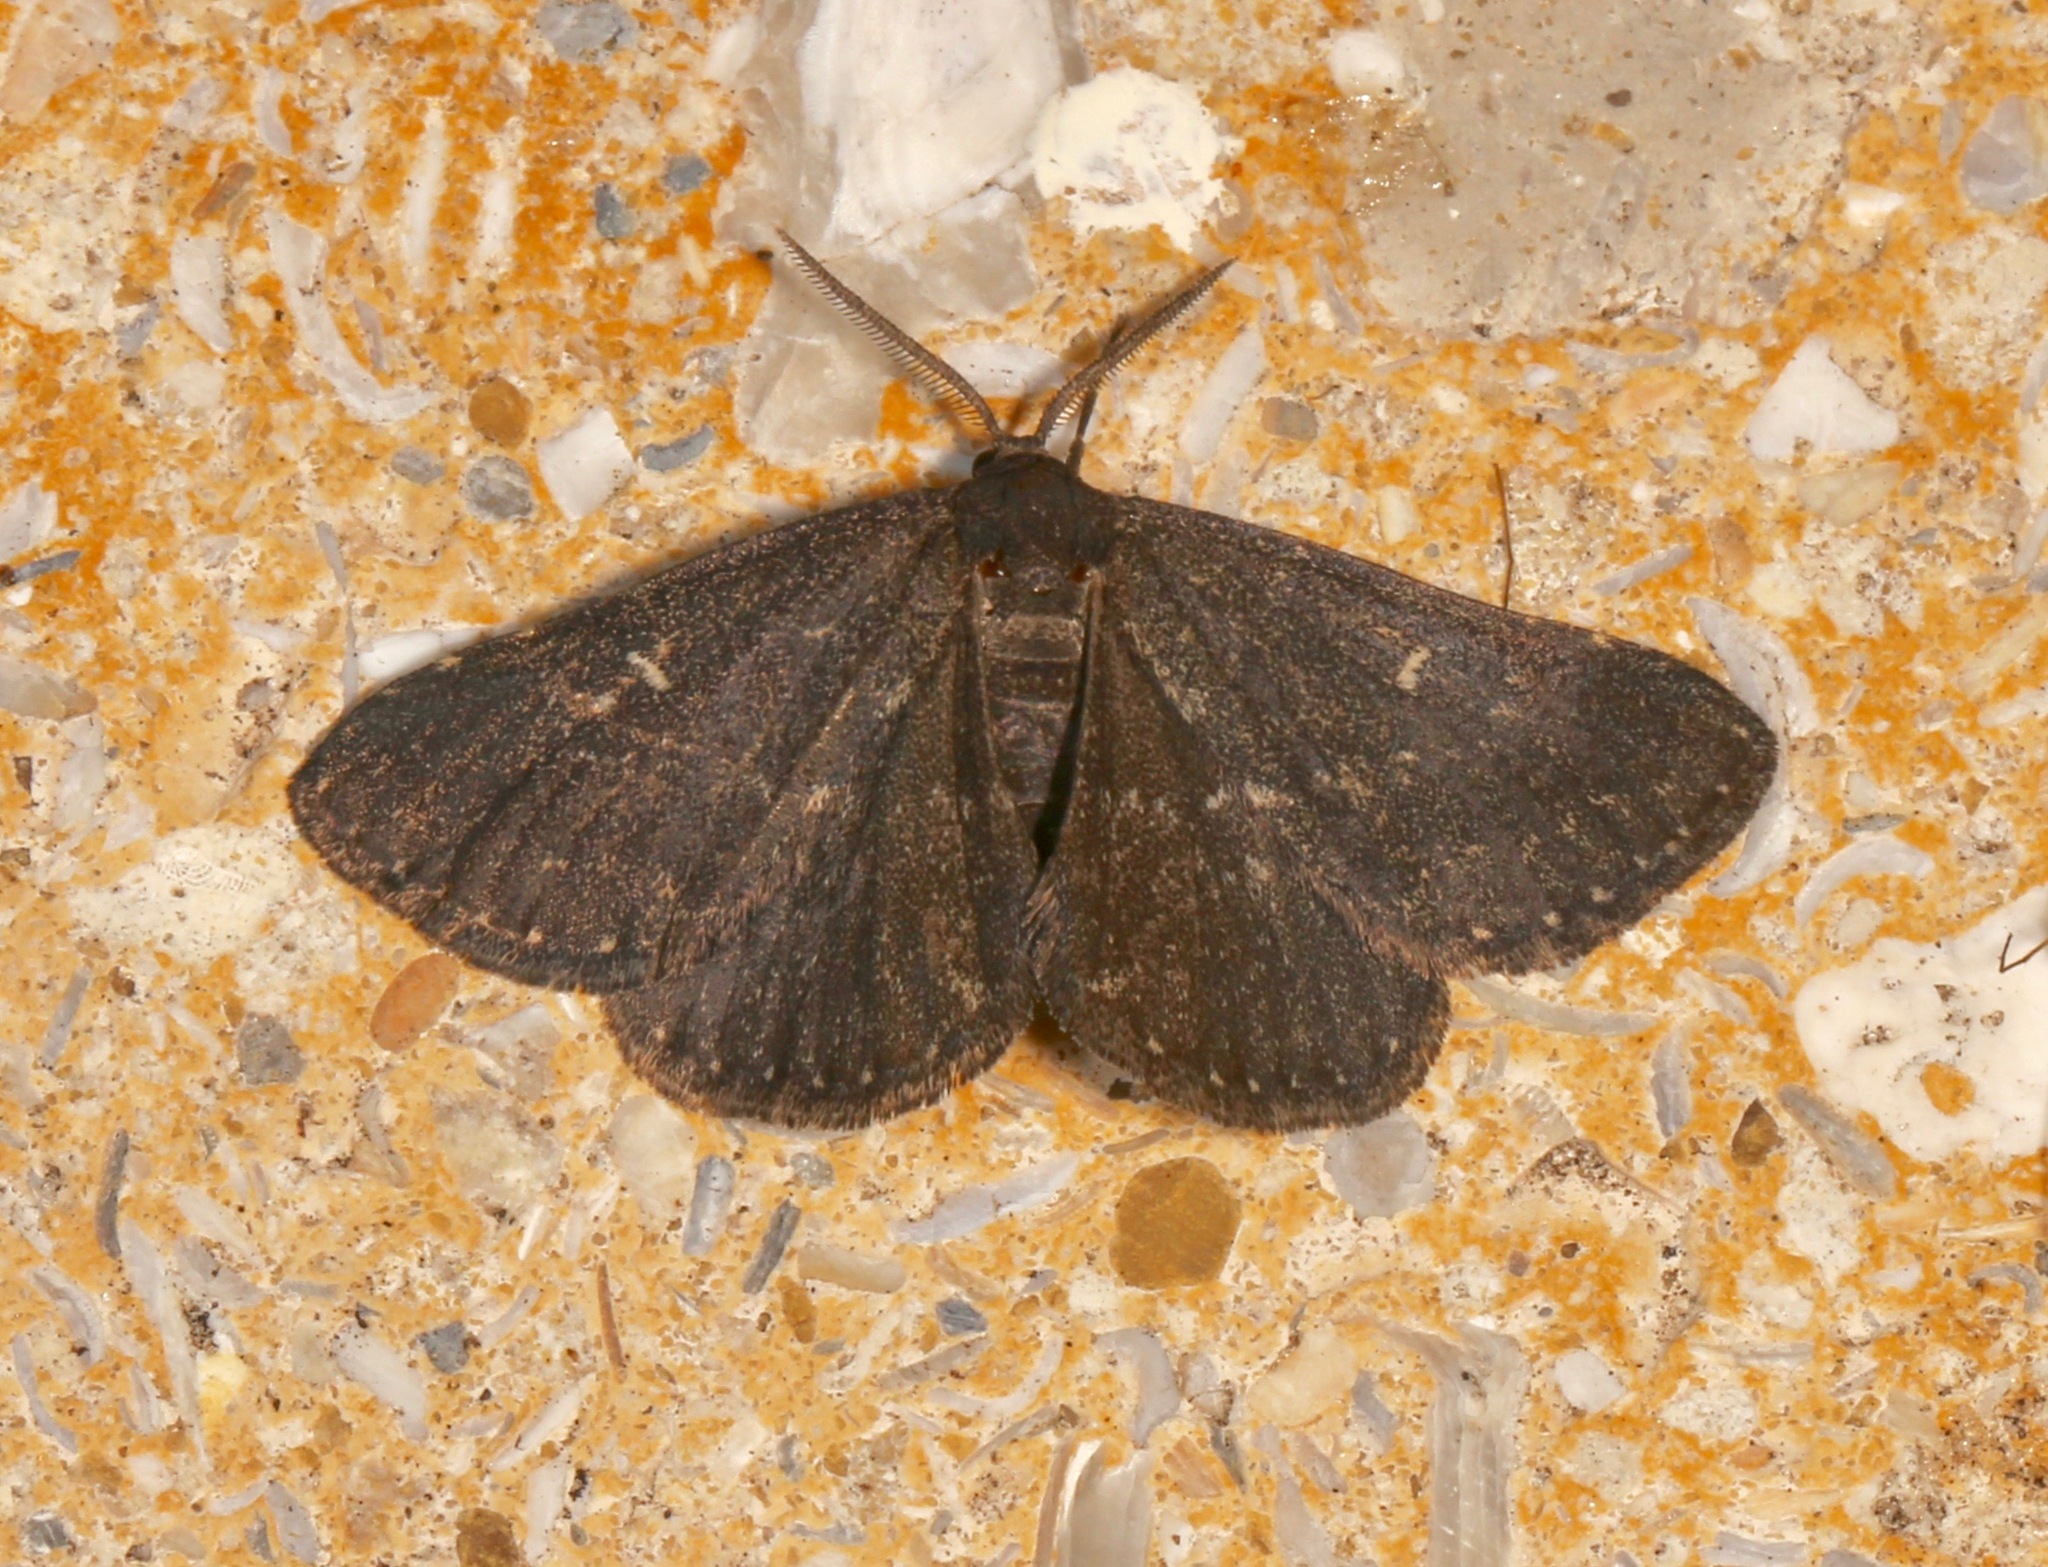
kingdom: Animalia
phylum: Arthropoda
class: Insecta
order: Lepidoptera
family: Erebidae
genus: Prosoparia
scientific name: Prosoparia floridana
